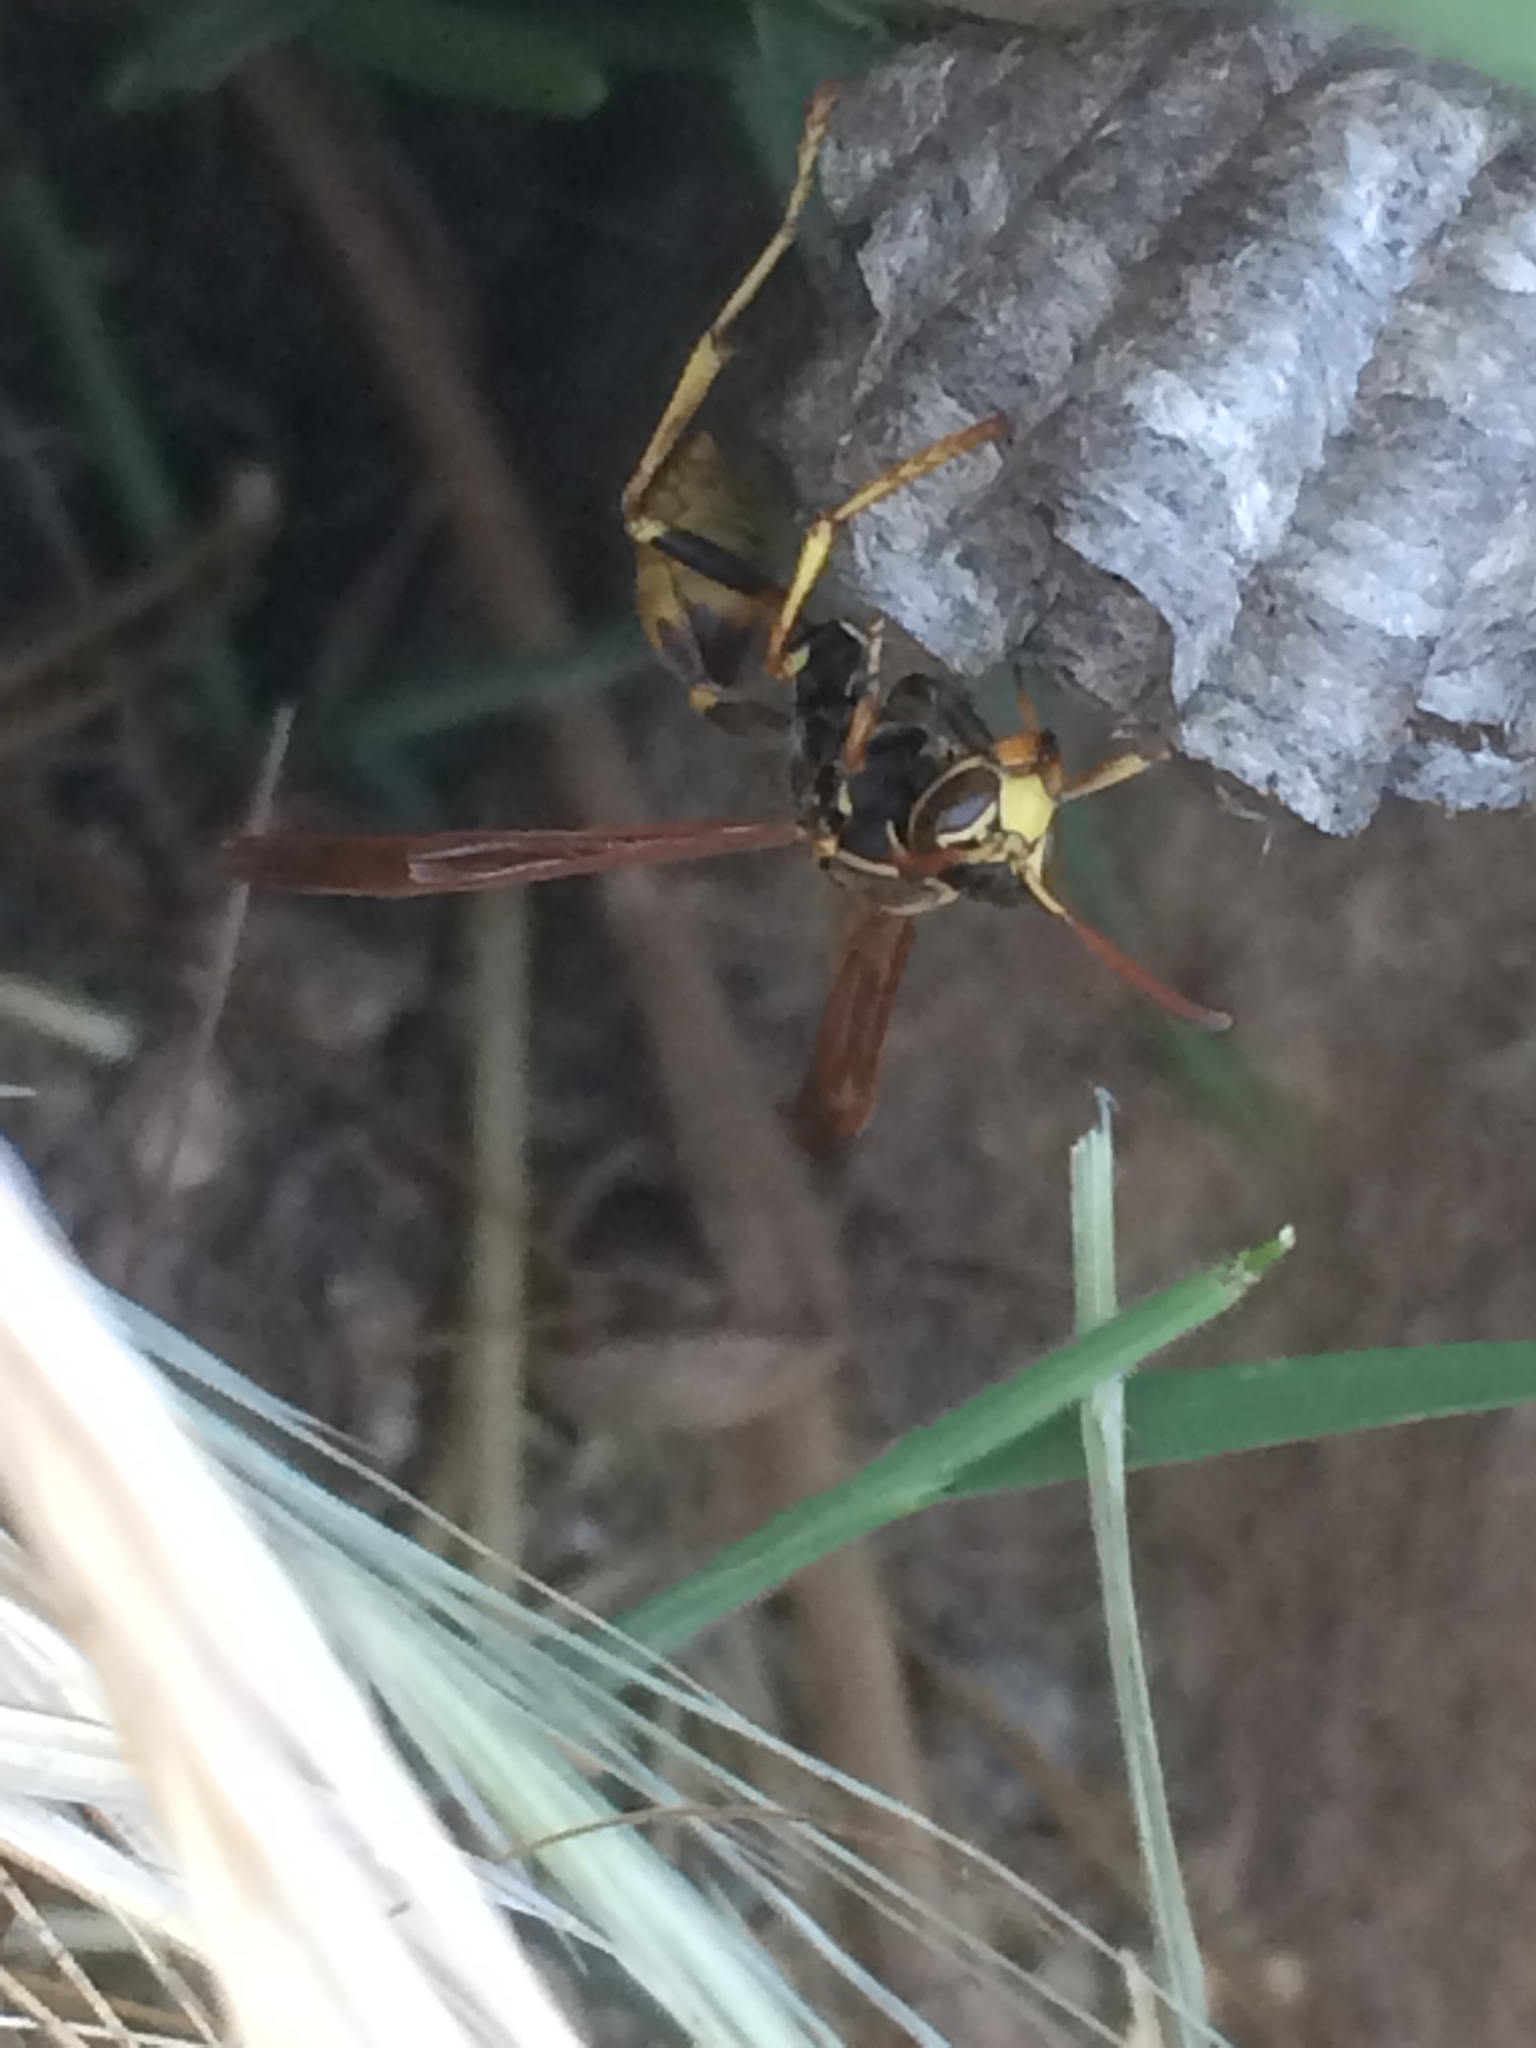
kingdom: Animalia
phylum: Arthropoda
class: Insecta
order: Hymenoptera
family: Vespidae
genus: Mischocyttarus
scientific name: Mischocyttarus flavitarsis
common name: Wasp
